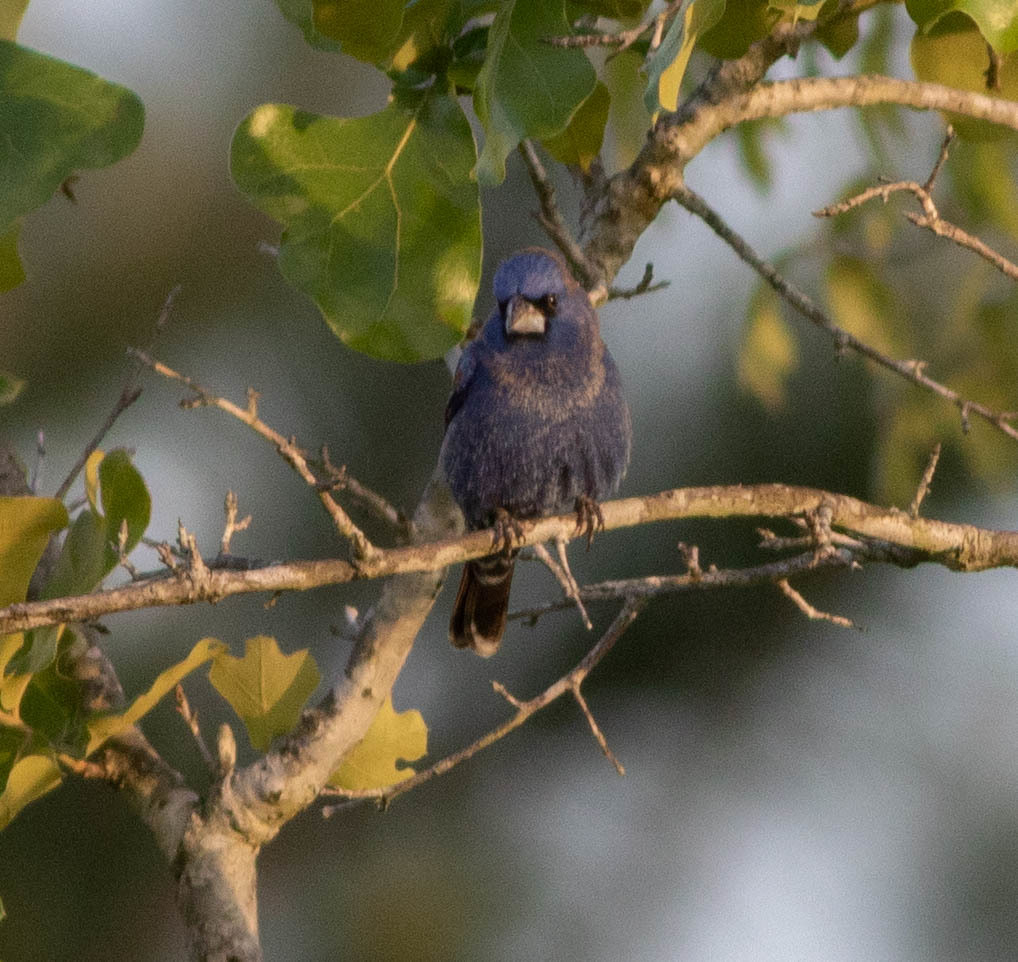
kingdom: Animalia
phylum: Chordata
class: Aves
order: Passeriformes
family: Cardinalidae
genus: Passerina
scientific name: Passerina caerulea
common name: Blue grosbeak
